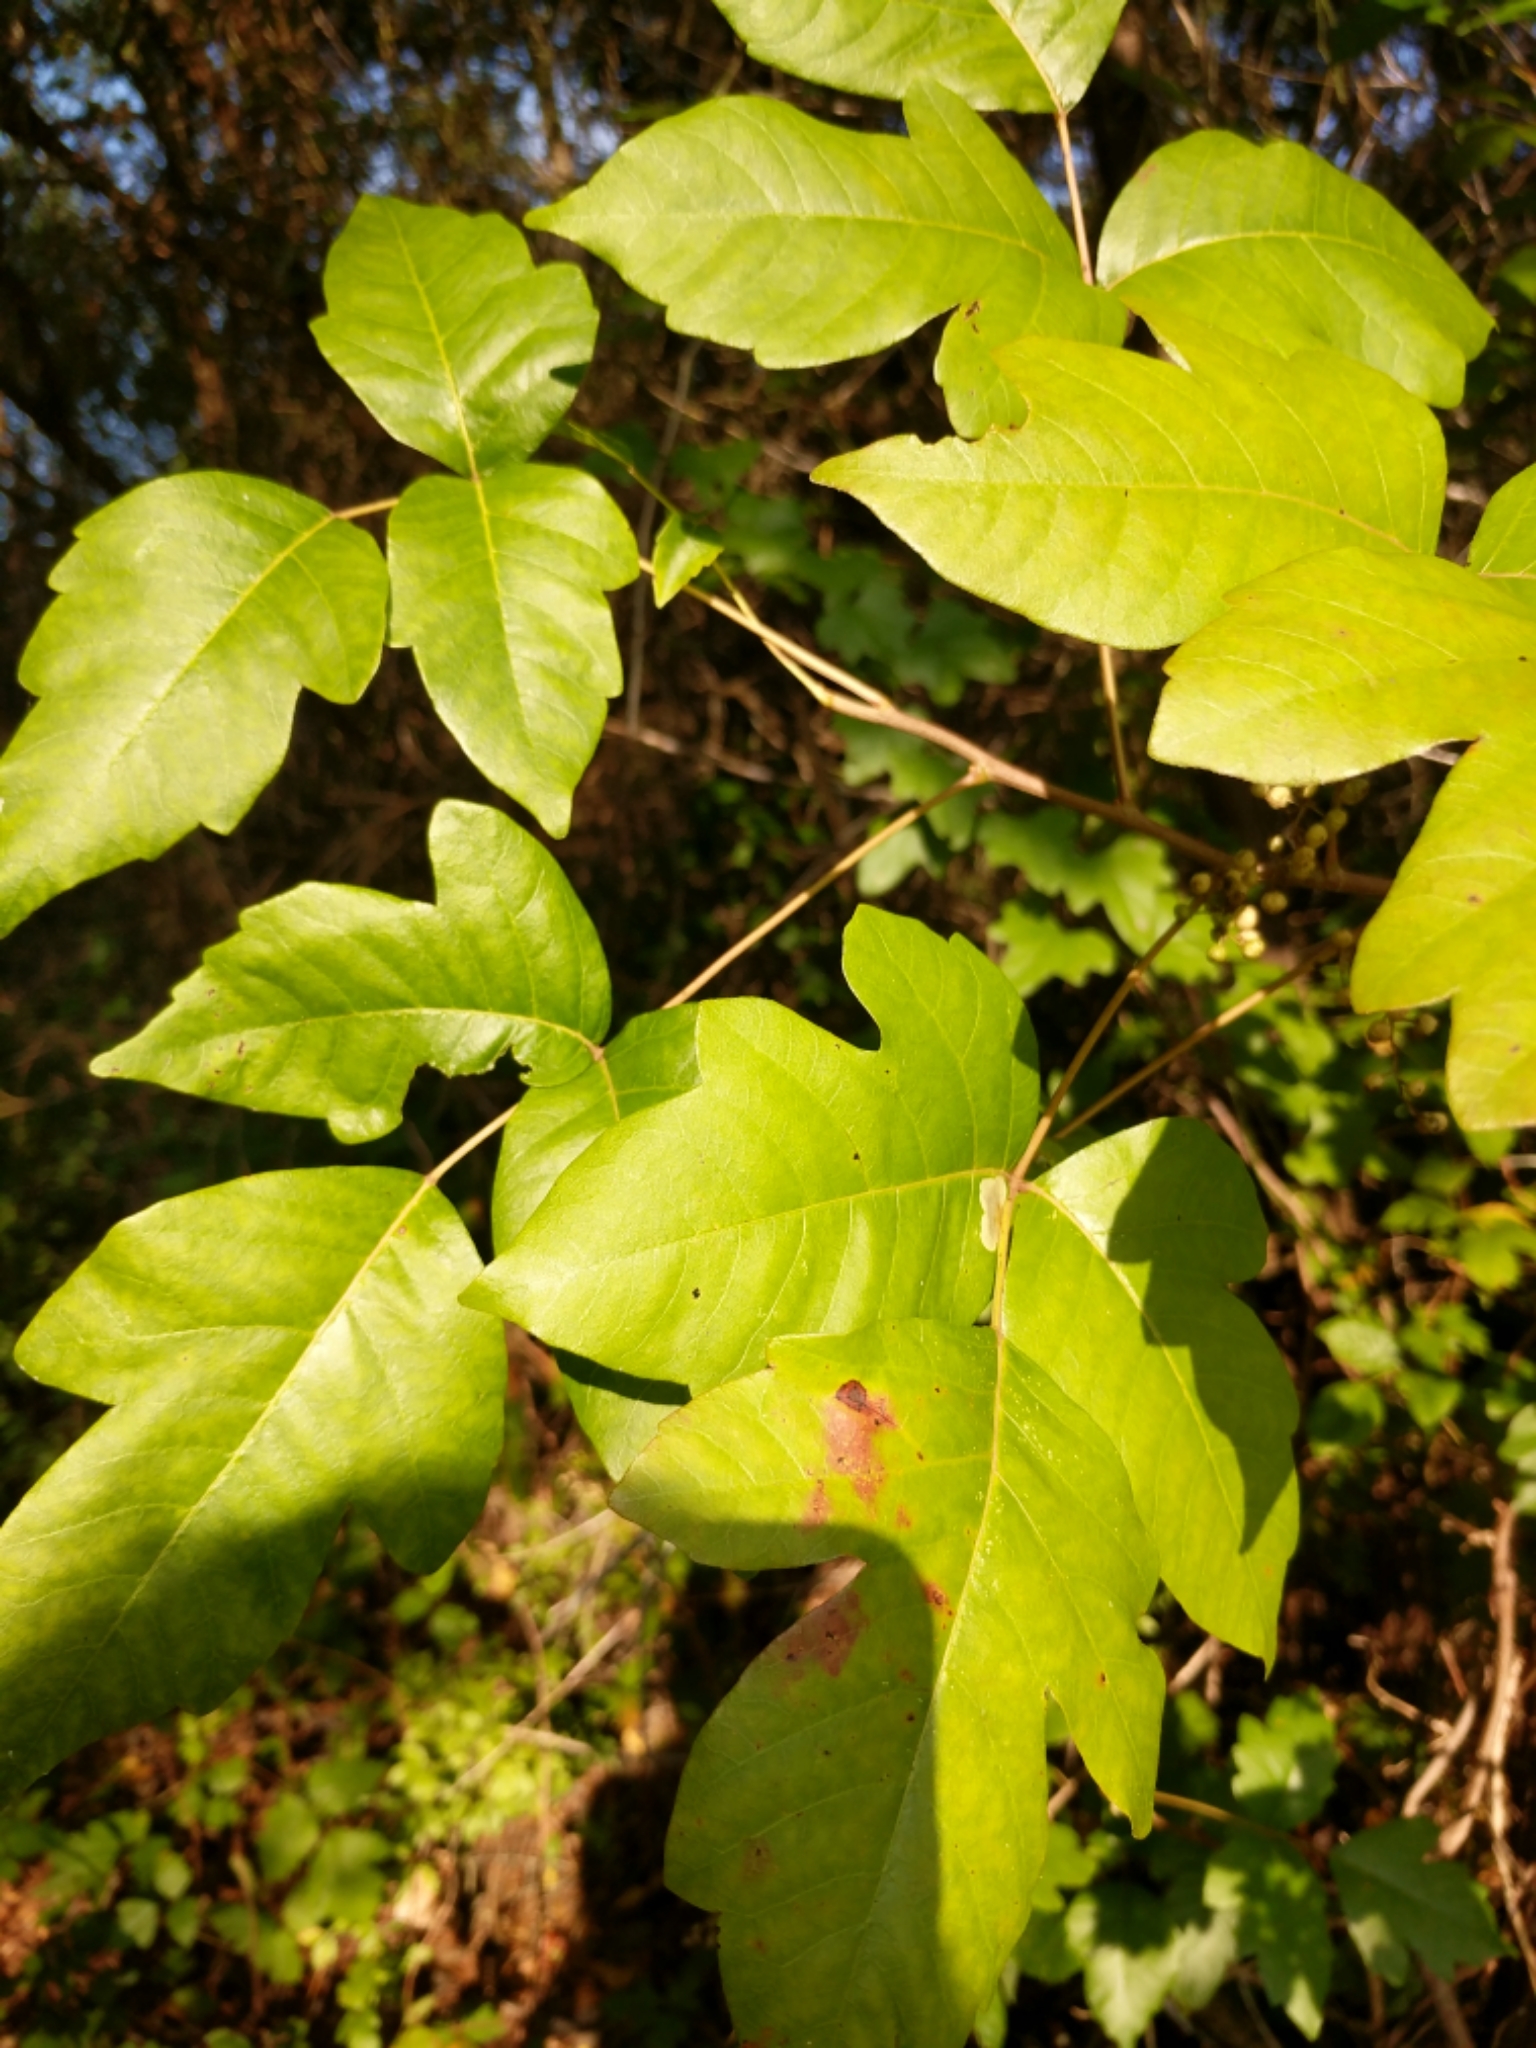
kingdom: Plantae
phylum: Tracheophyta
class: Magnoliopsida
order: Sapindales
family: Anacardiaceae
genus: Toxicodendron
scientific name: Toxicodendron radicans
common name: Poison ivy
